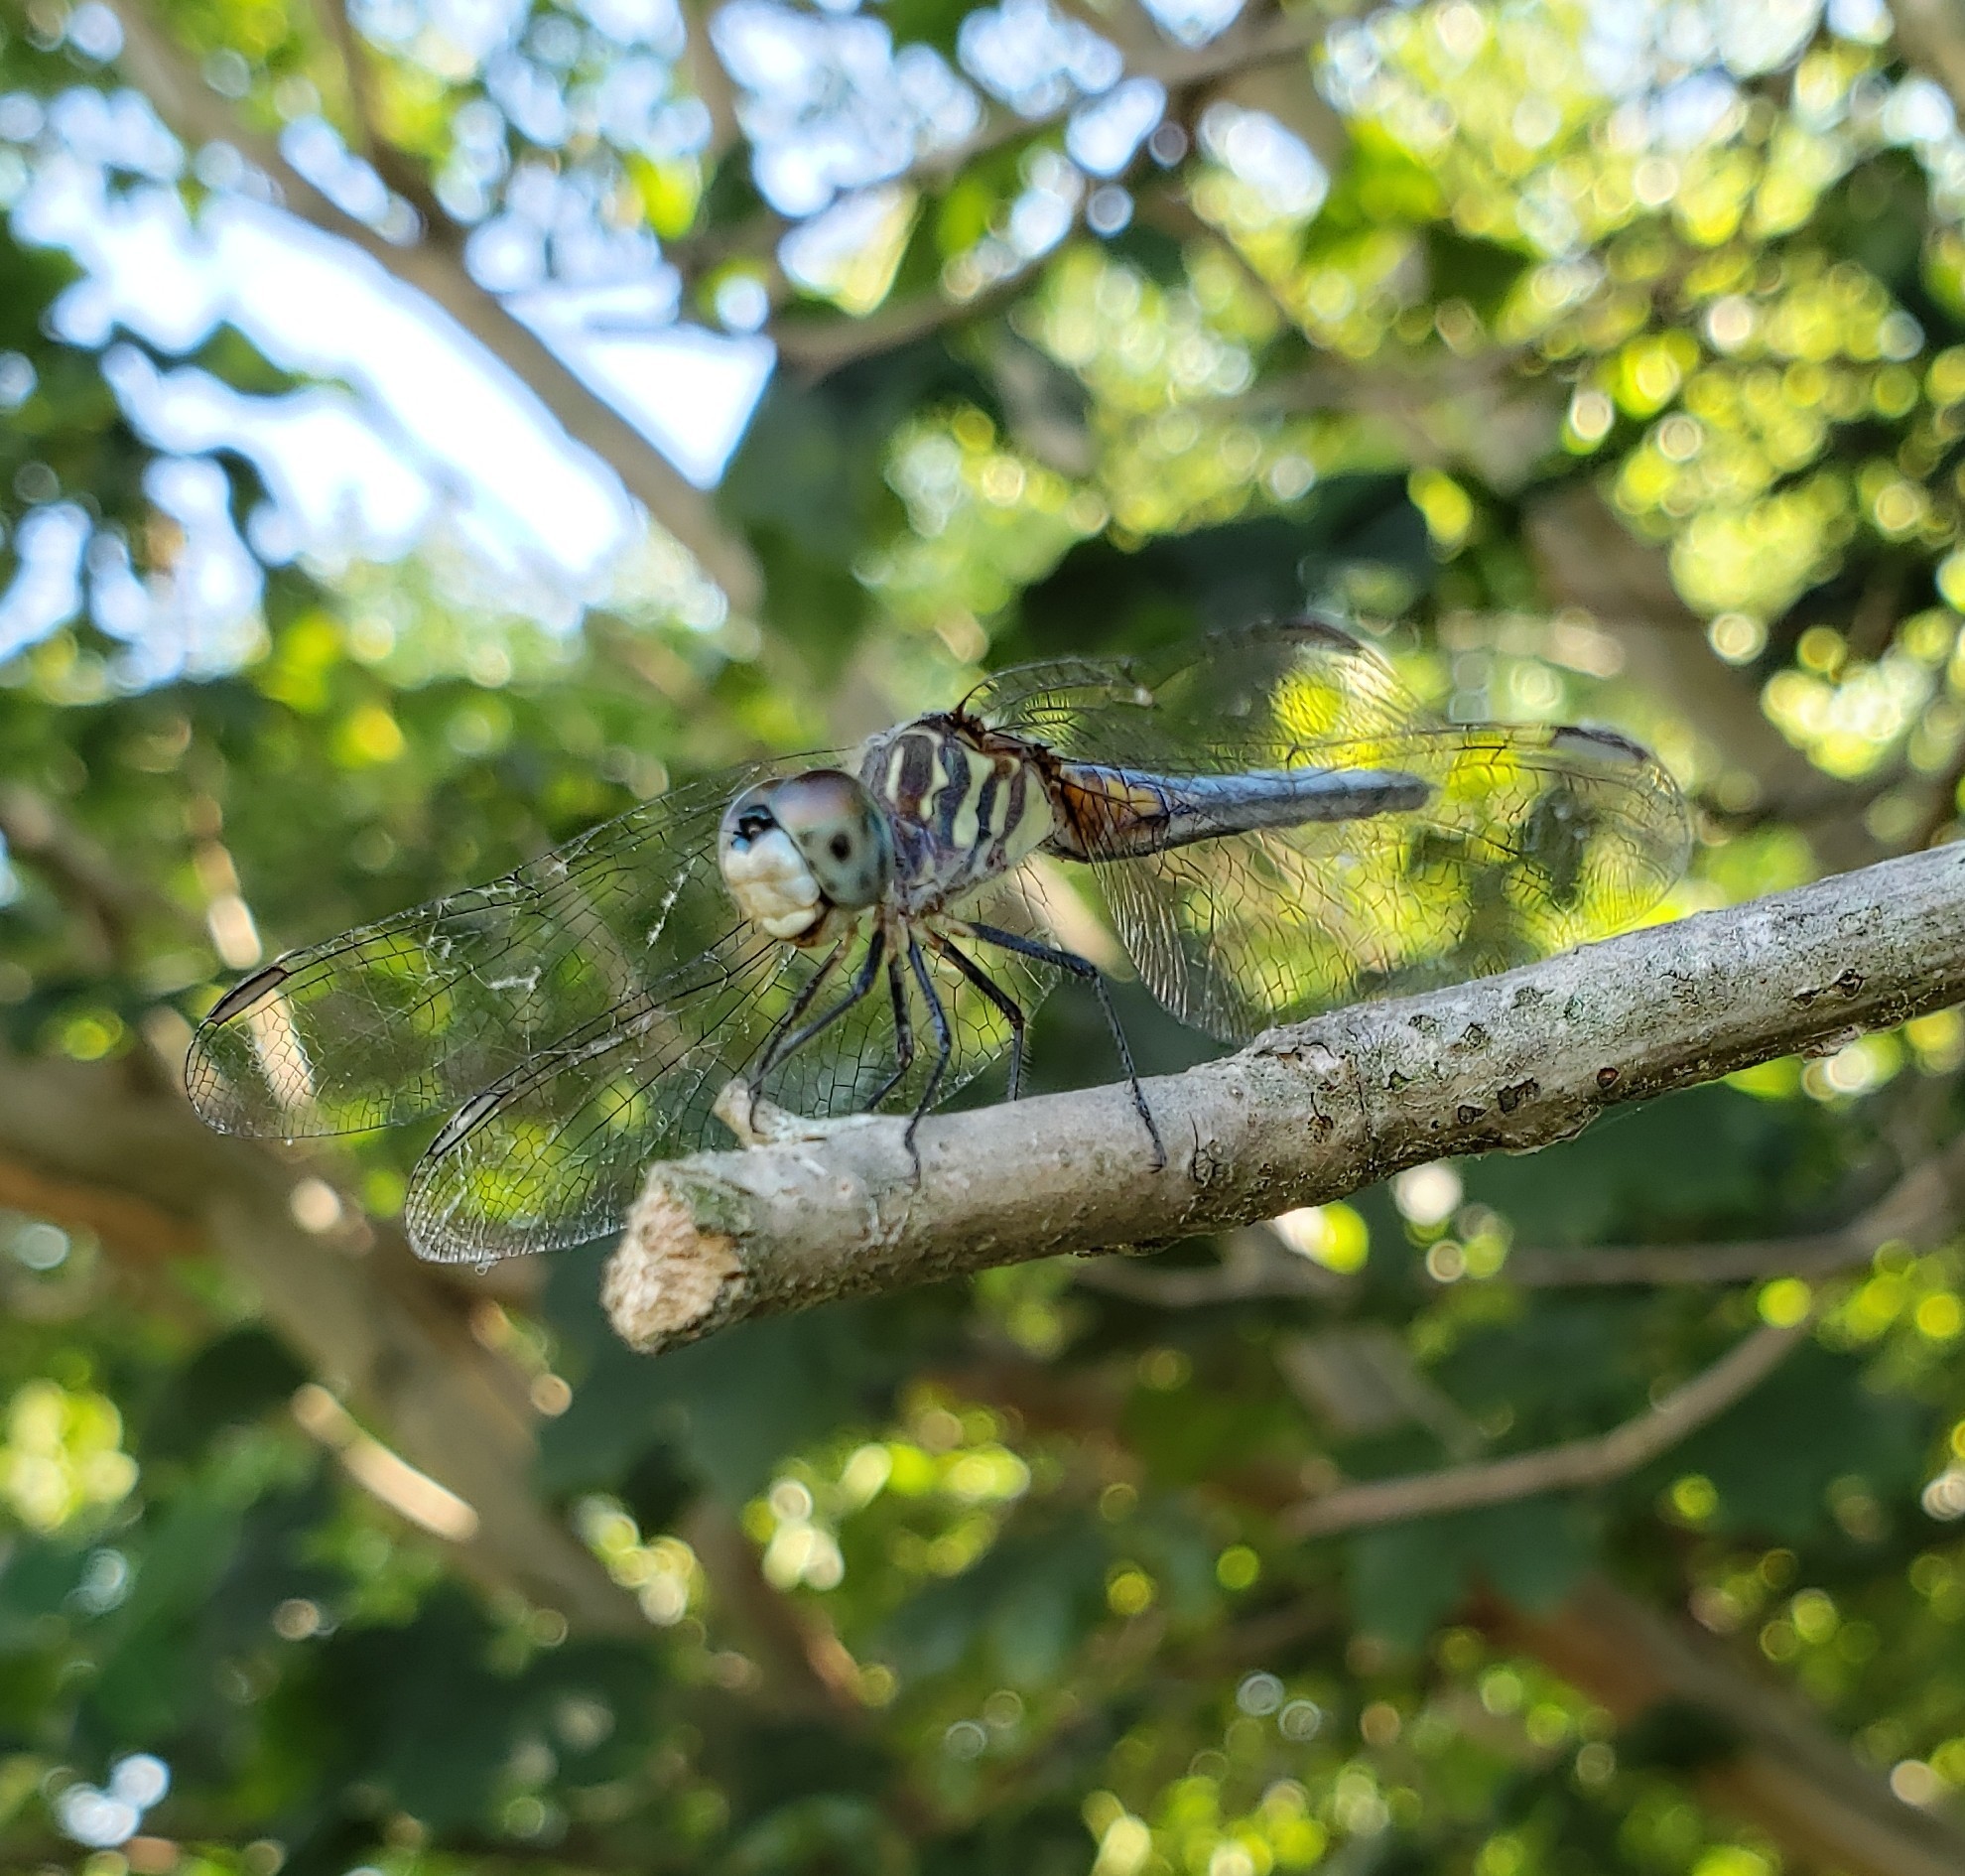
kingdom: Animalia
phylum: Arthropoda
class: Insecta
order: Odonata
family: Libellulidae
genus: Pachydiplax
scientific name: Pachydiplax longipennis
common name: Blue dasher
